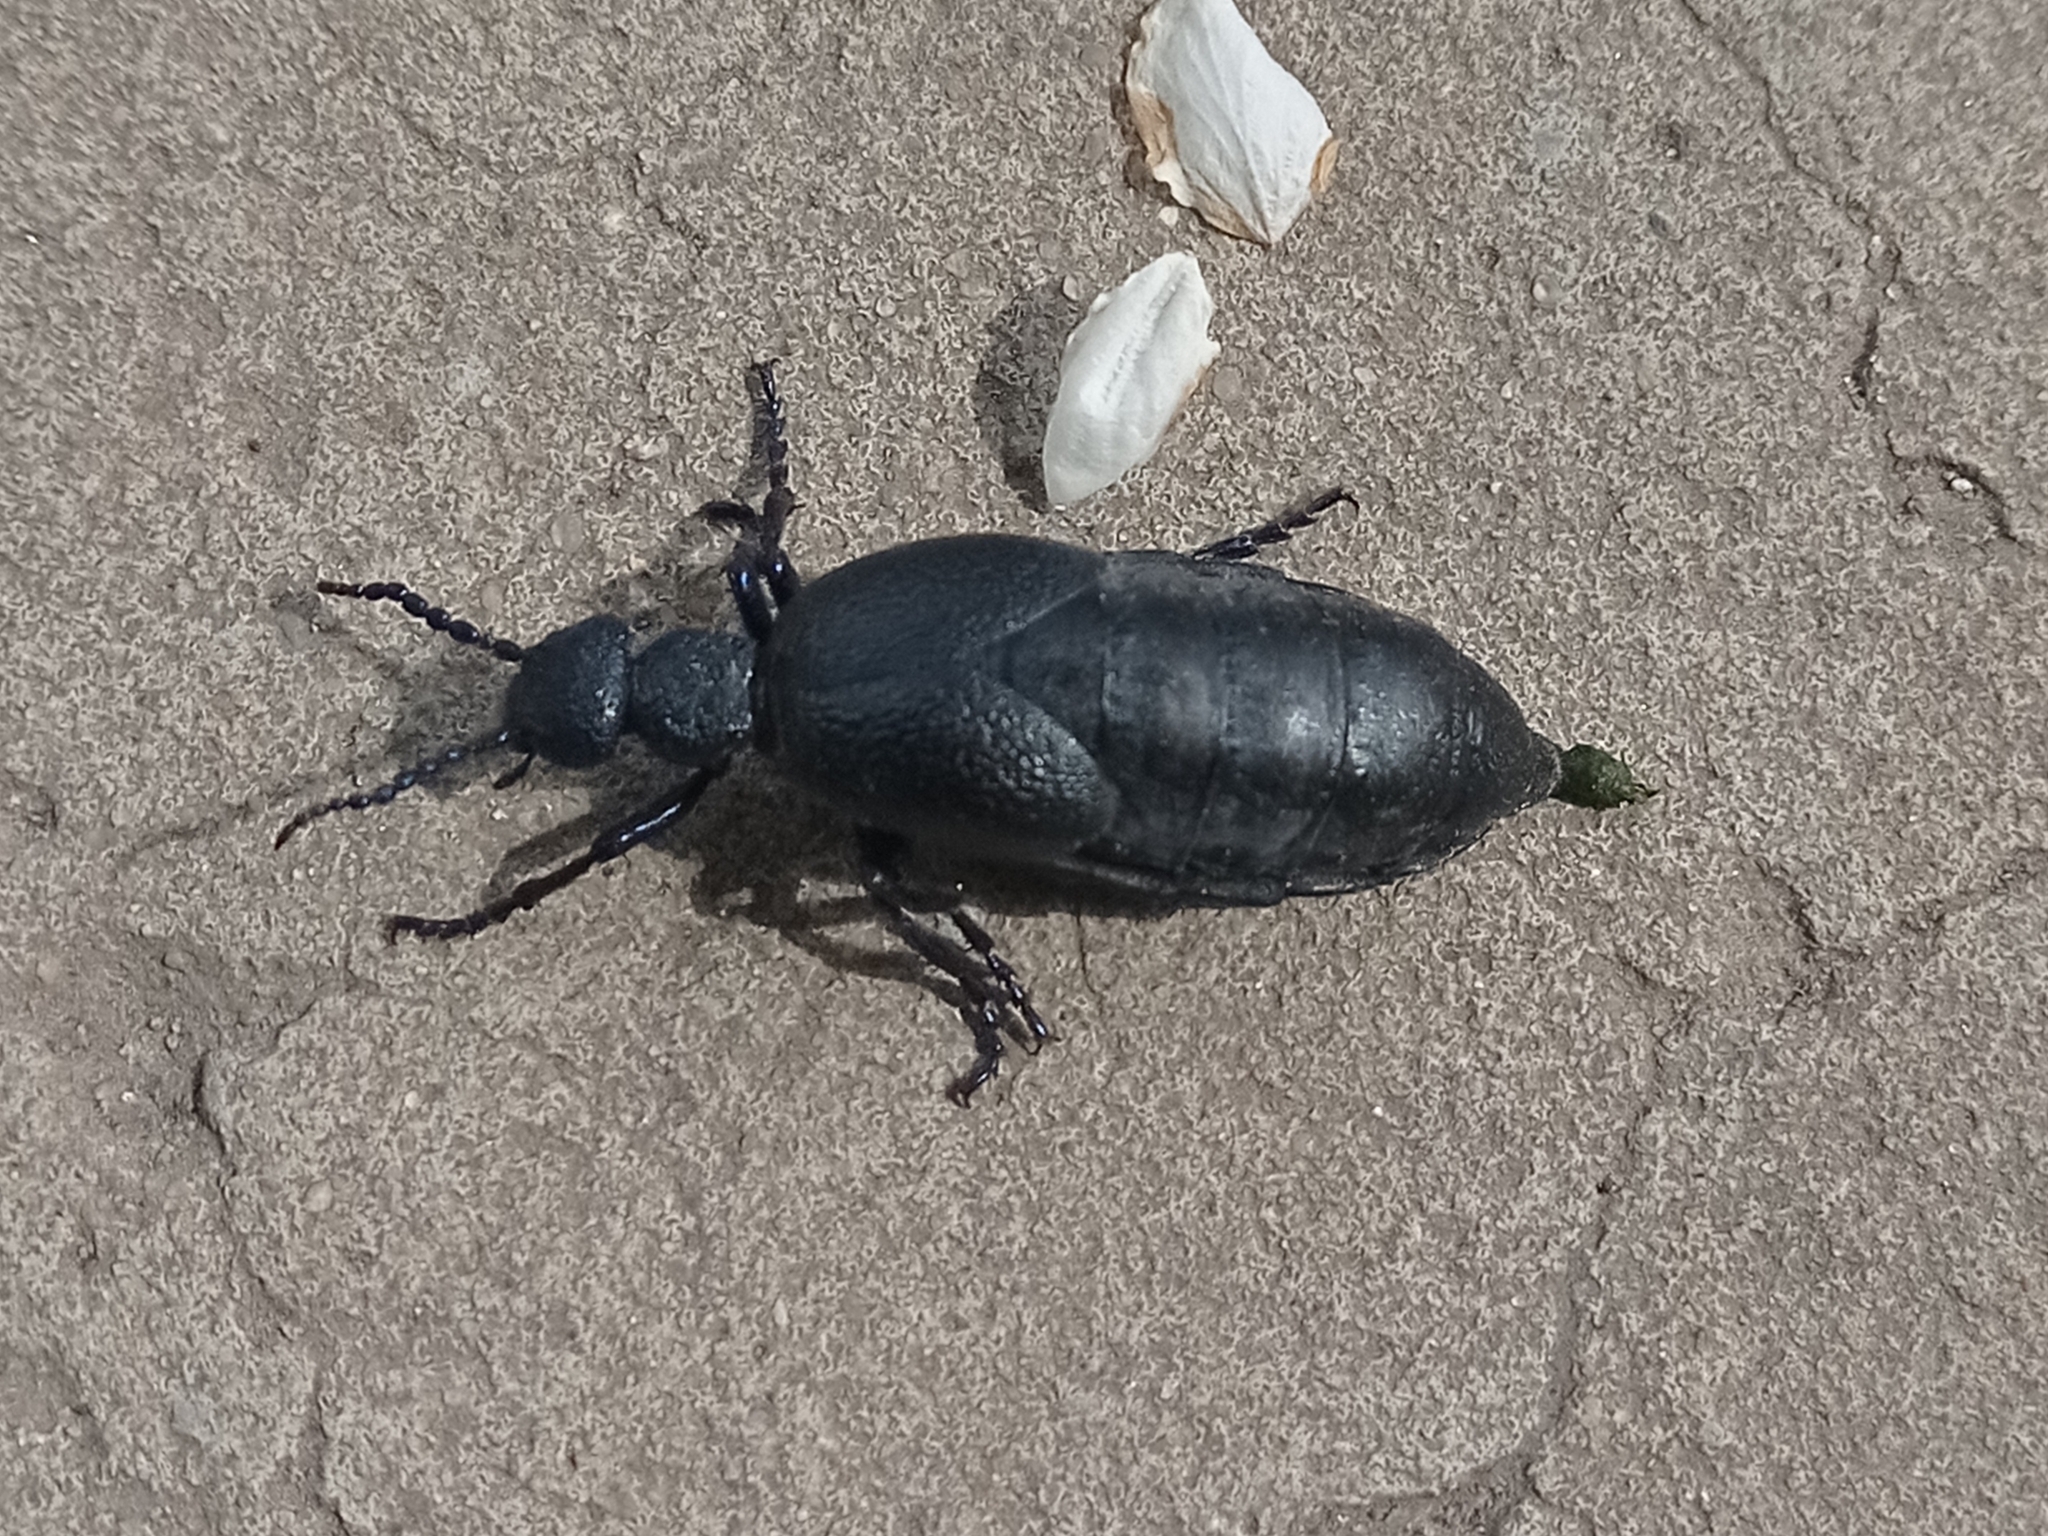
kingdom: Animalia
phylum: Arthropoda
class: Insecta
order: Coleoptera
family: Meloidae
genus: Meloe
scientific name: Meloe proscarabaeus
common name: Black oil-beetle
